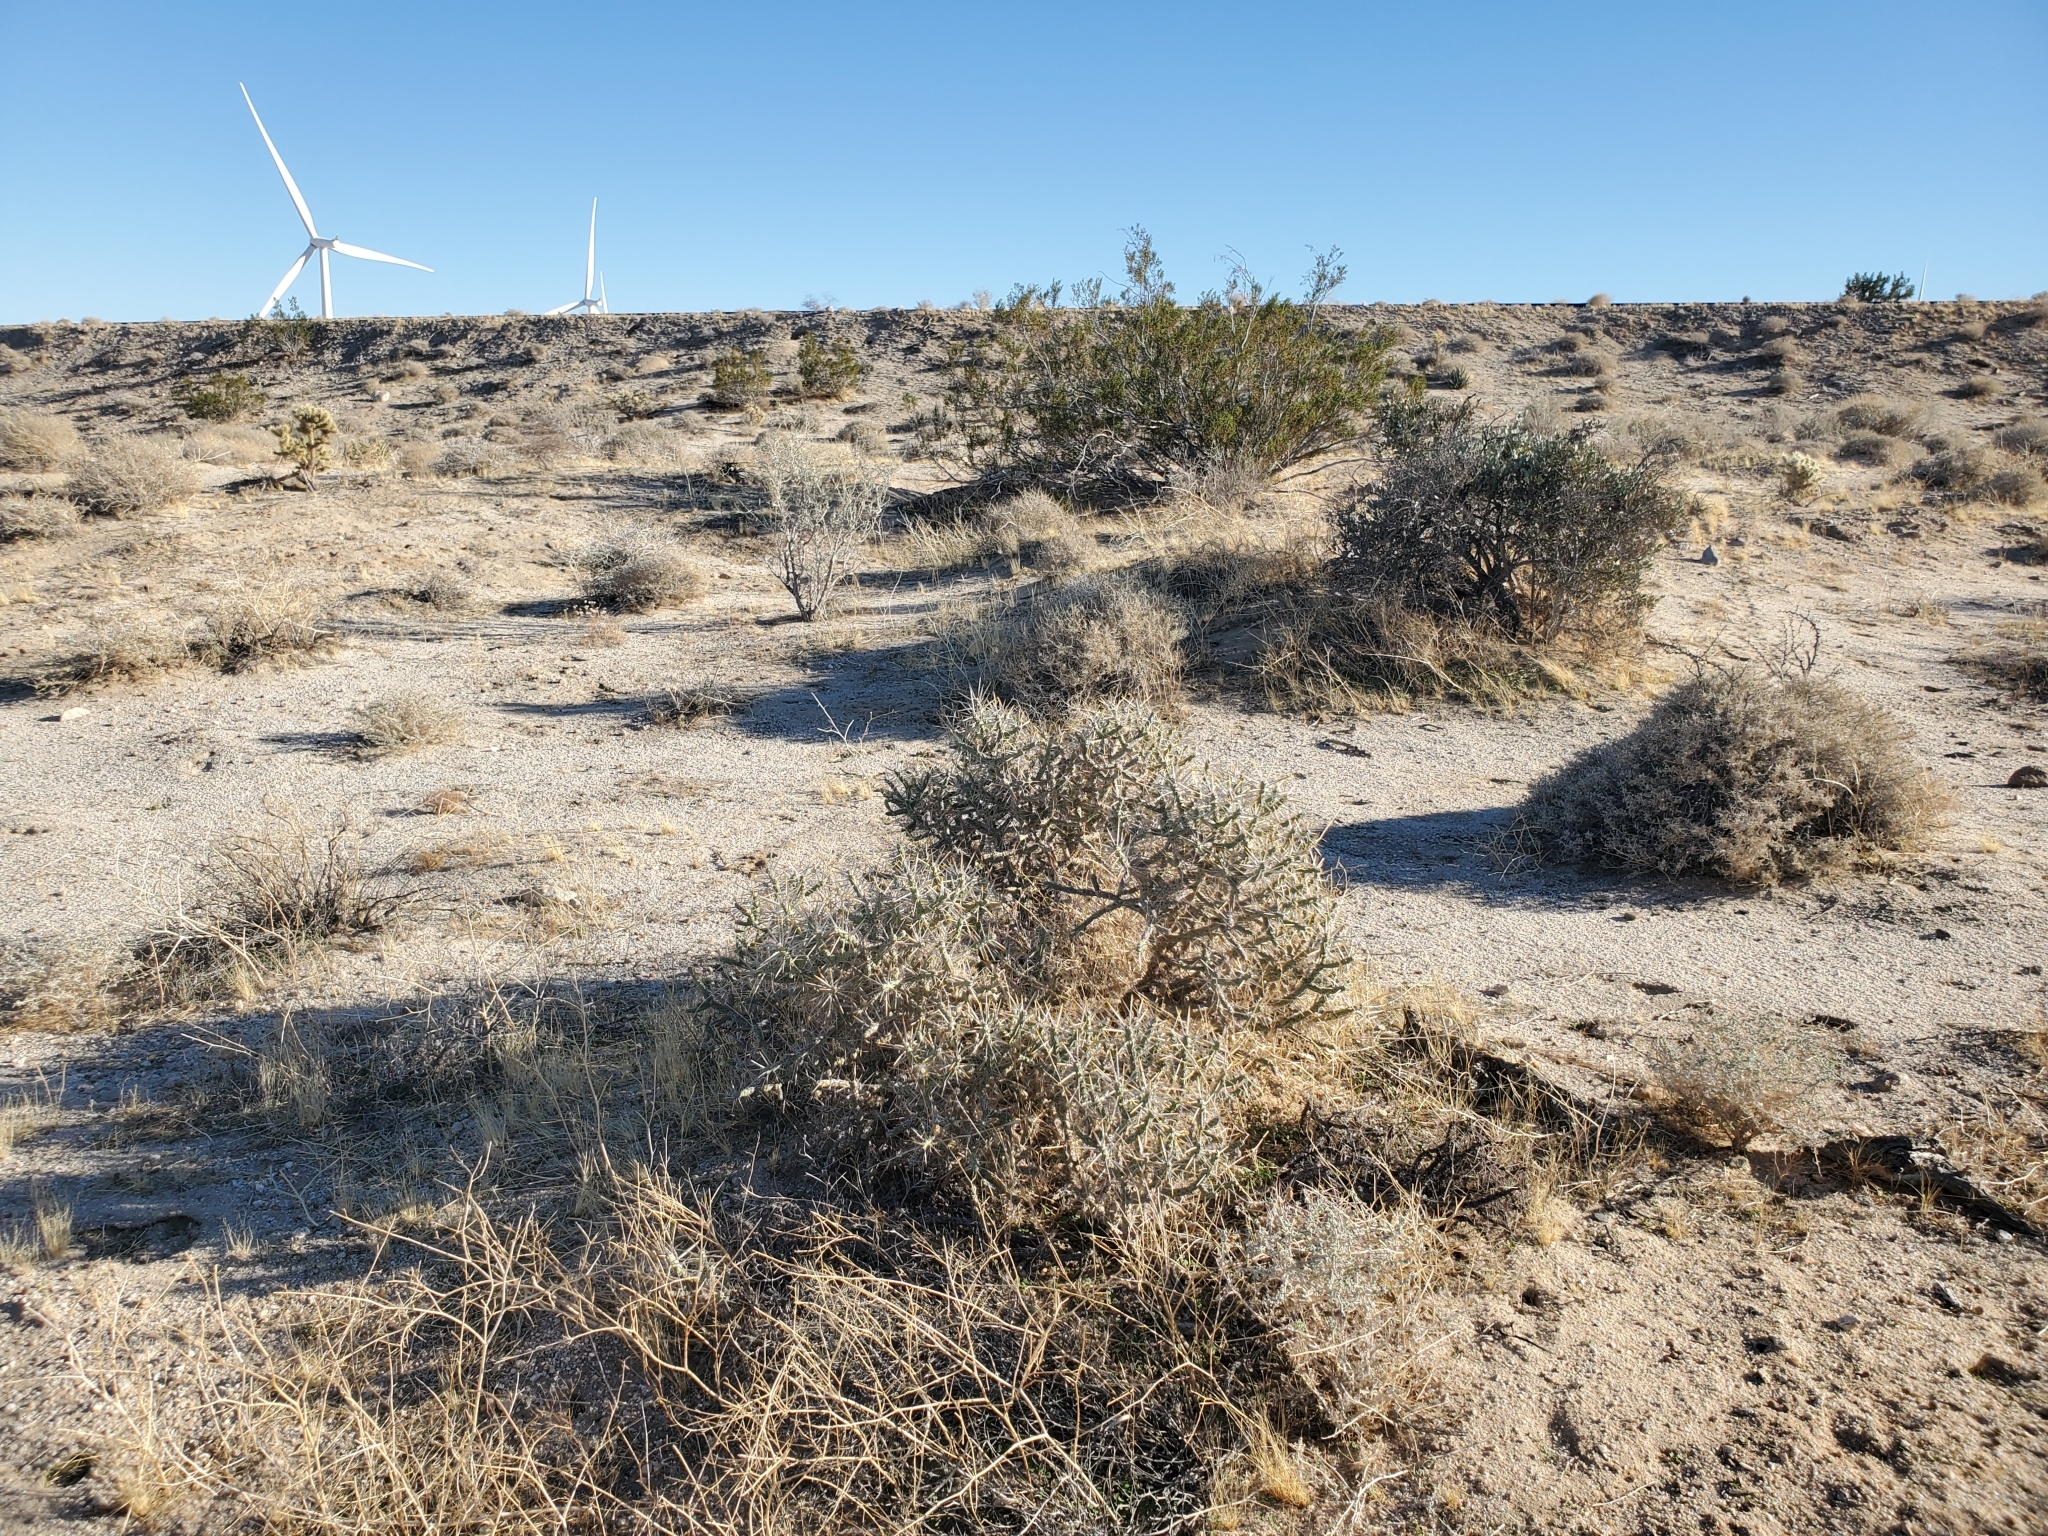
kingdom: Plantae
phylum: Tracheophyta
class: Magnoliopsida
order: Caryophyllales
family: Cactaceae
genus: Cylindropuntia
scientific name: Cylindropuntia ramosissima
